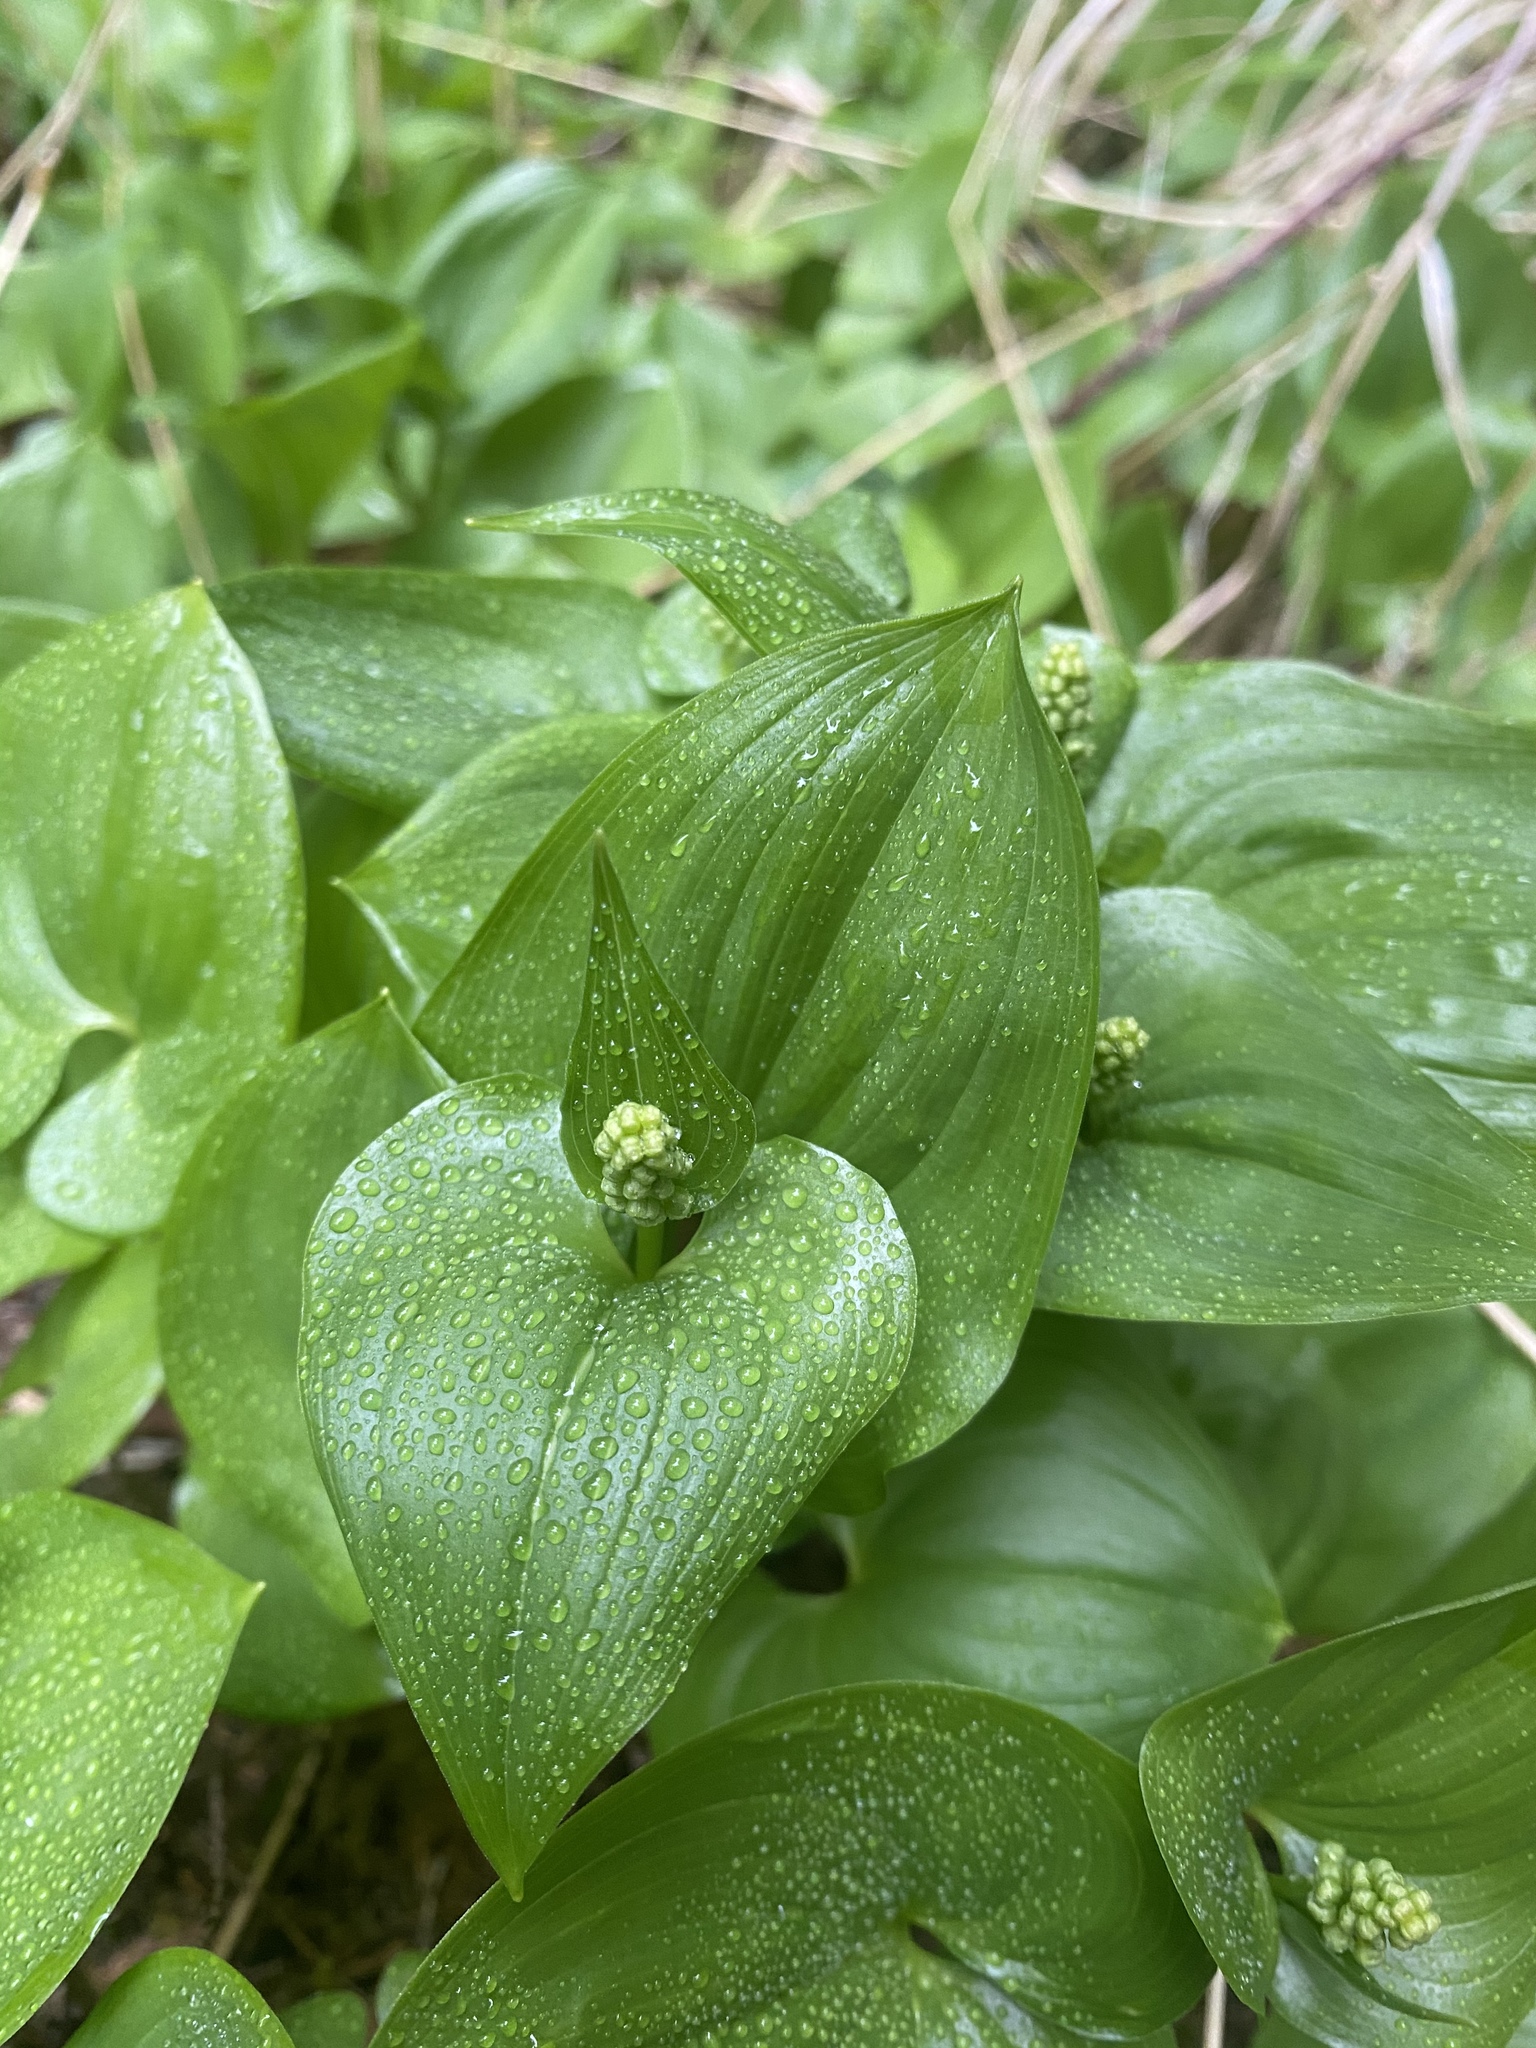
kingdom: Plantae
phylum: Tracheophyta
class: Liliopsida
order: Asparagales
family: Asparagaceae
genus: Maianthemum
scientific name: Maianthemum dilatatum
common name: False lily-of-the-valley
